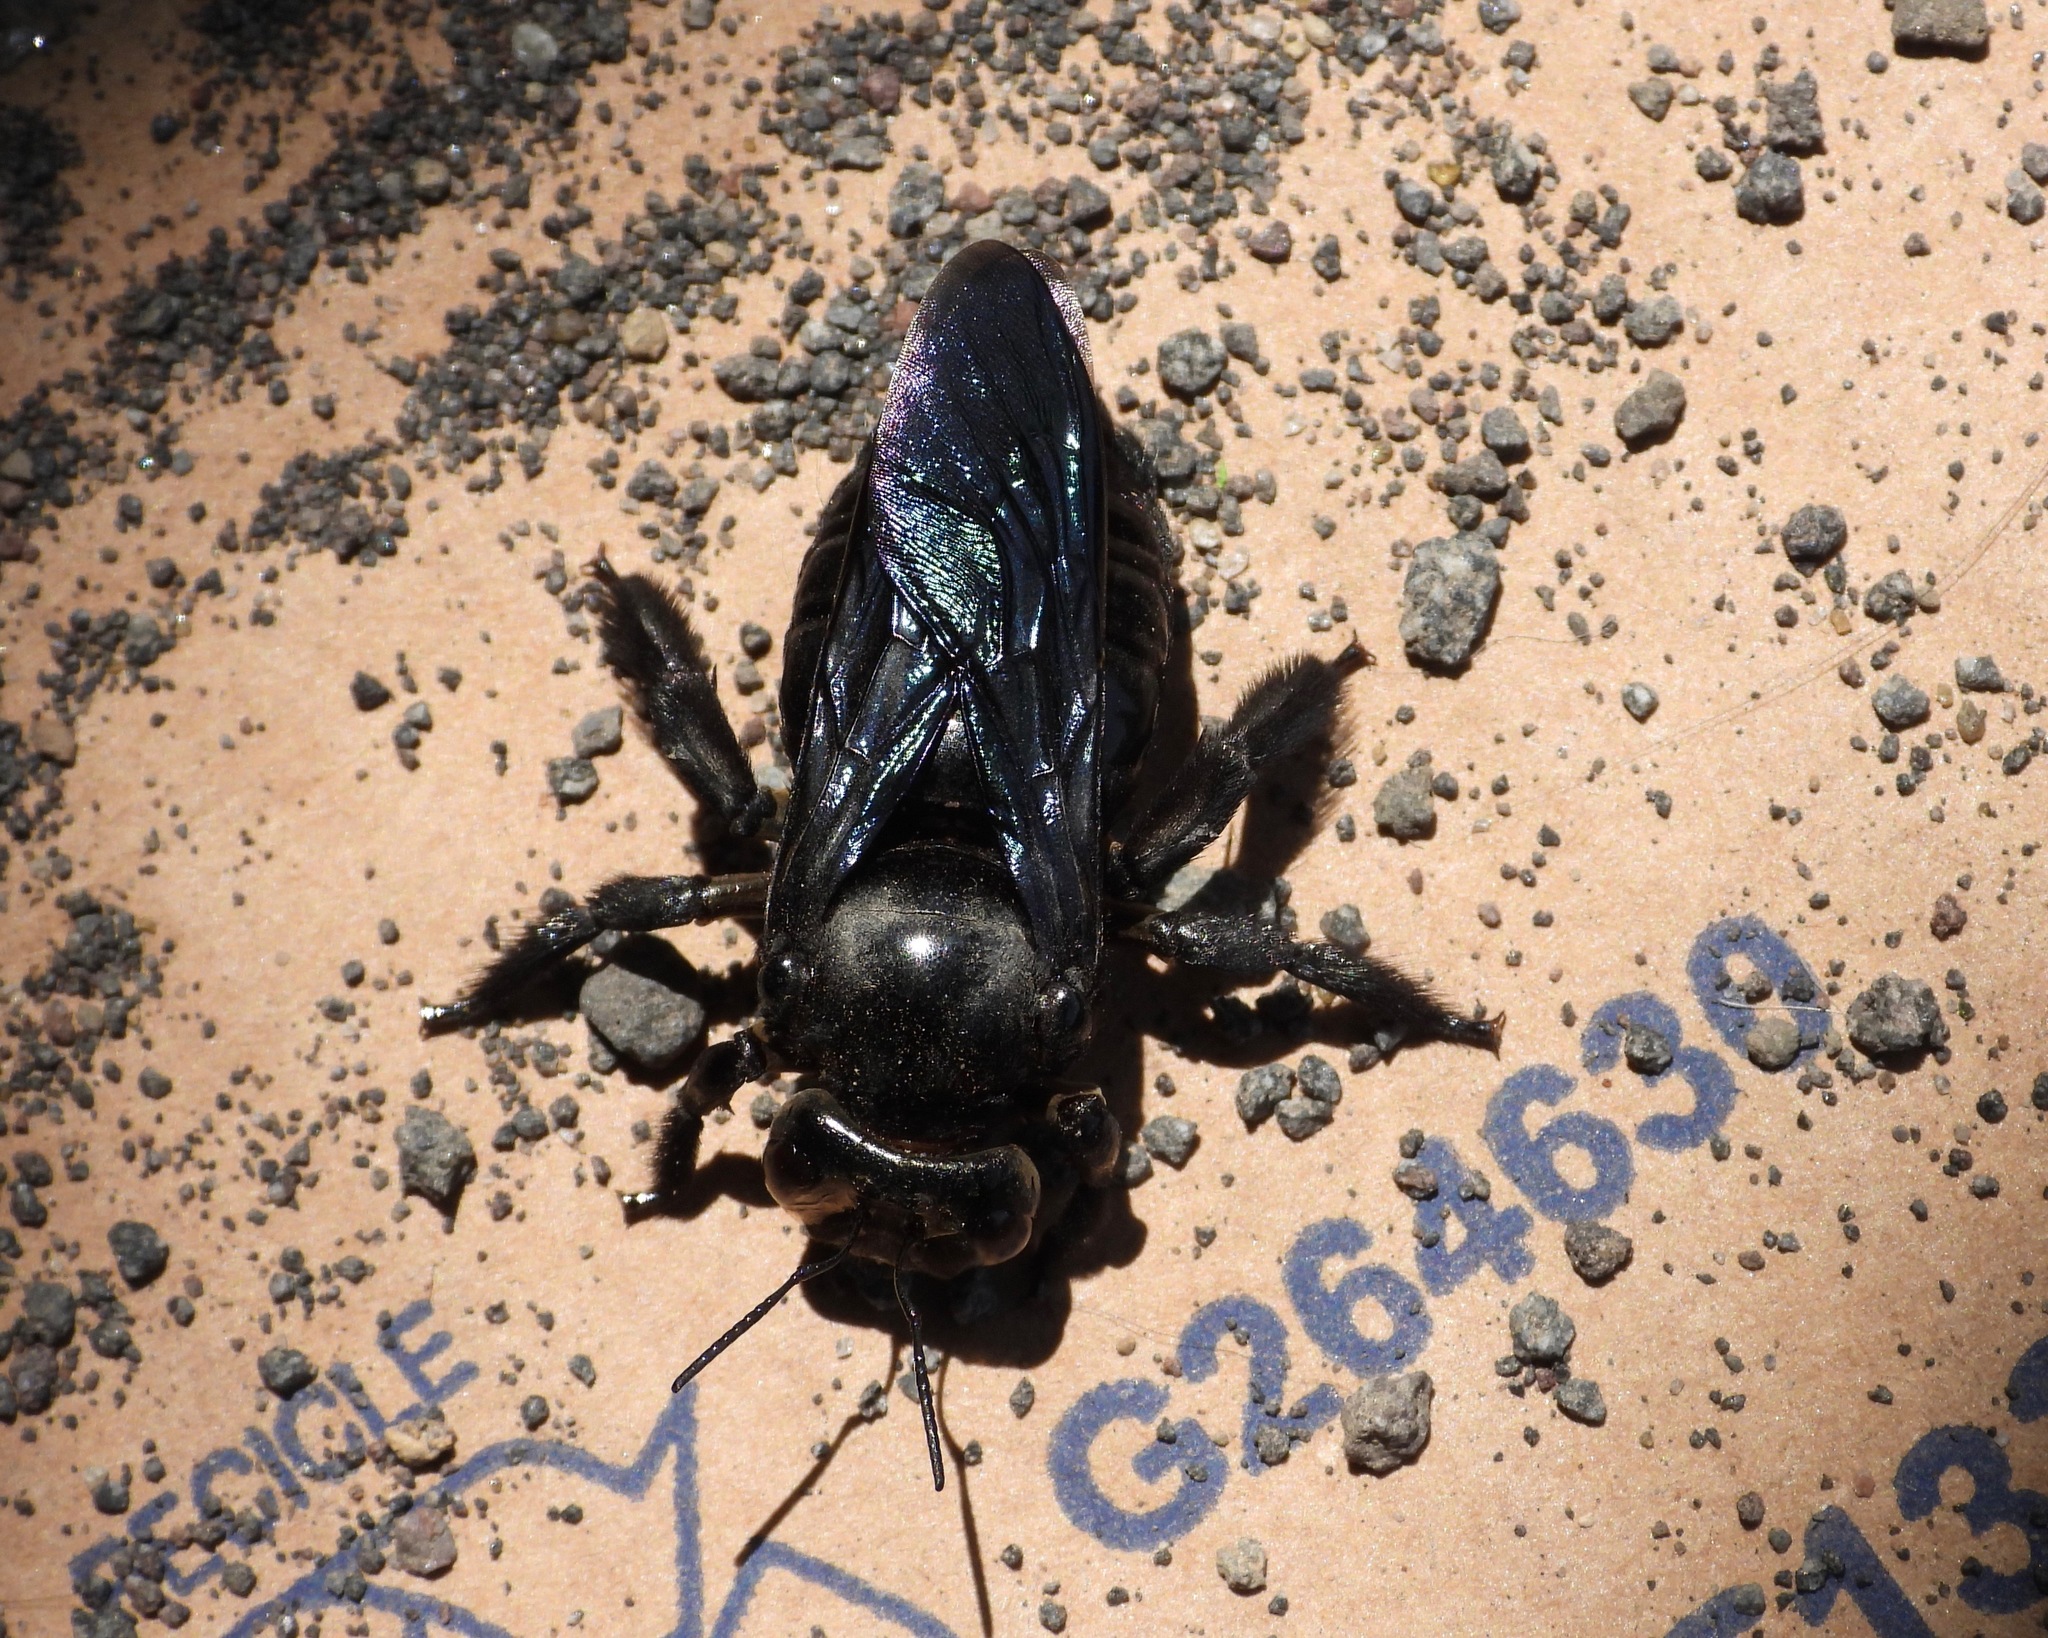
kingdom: Animalia
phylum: Arthropoda
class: Insecta
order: Hymenoptera
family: Apidae
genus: Xylocopa
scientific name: Xylocopa frontalis
